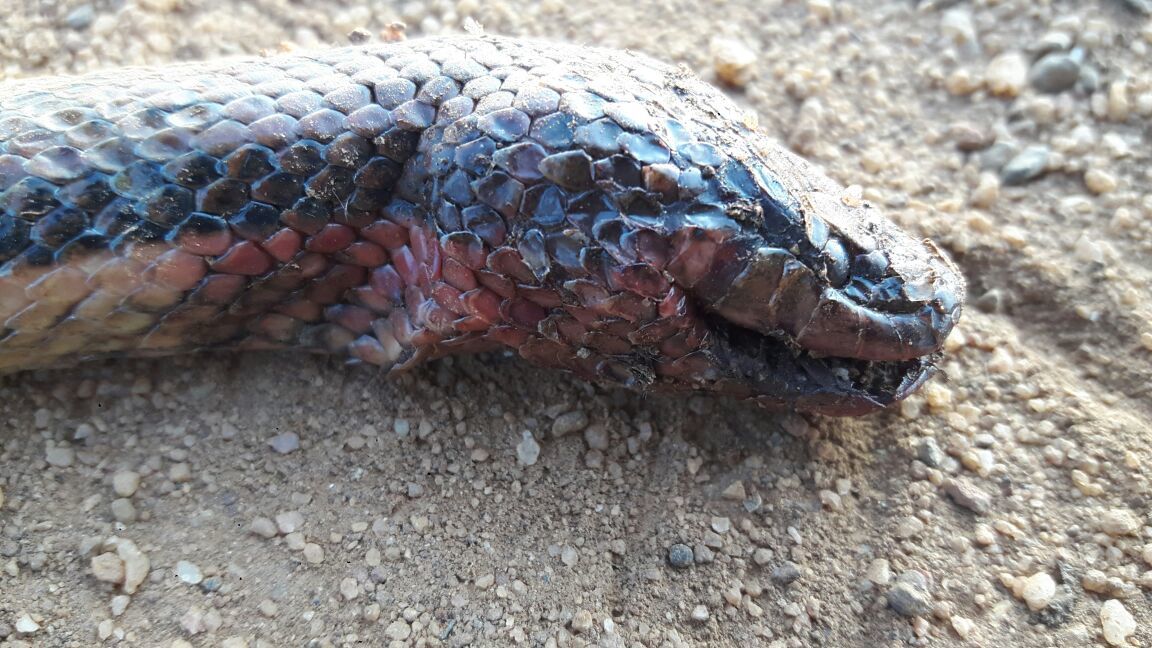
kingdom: Animalia
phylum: Chordata
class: Squamata
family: Homalopsidae
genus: Dieurostus
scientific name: Dieurostus dussumieri
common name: Dussumier's water snake
